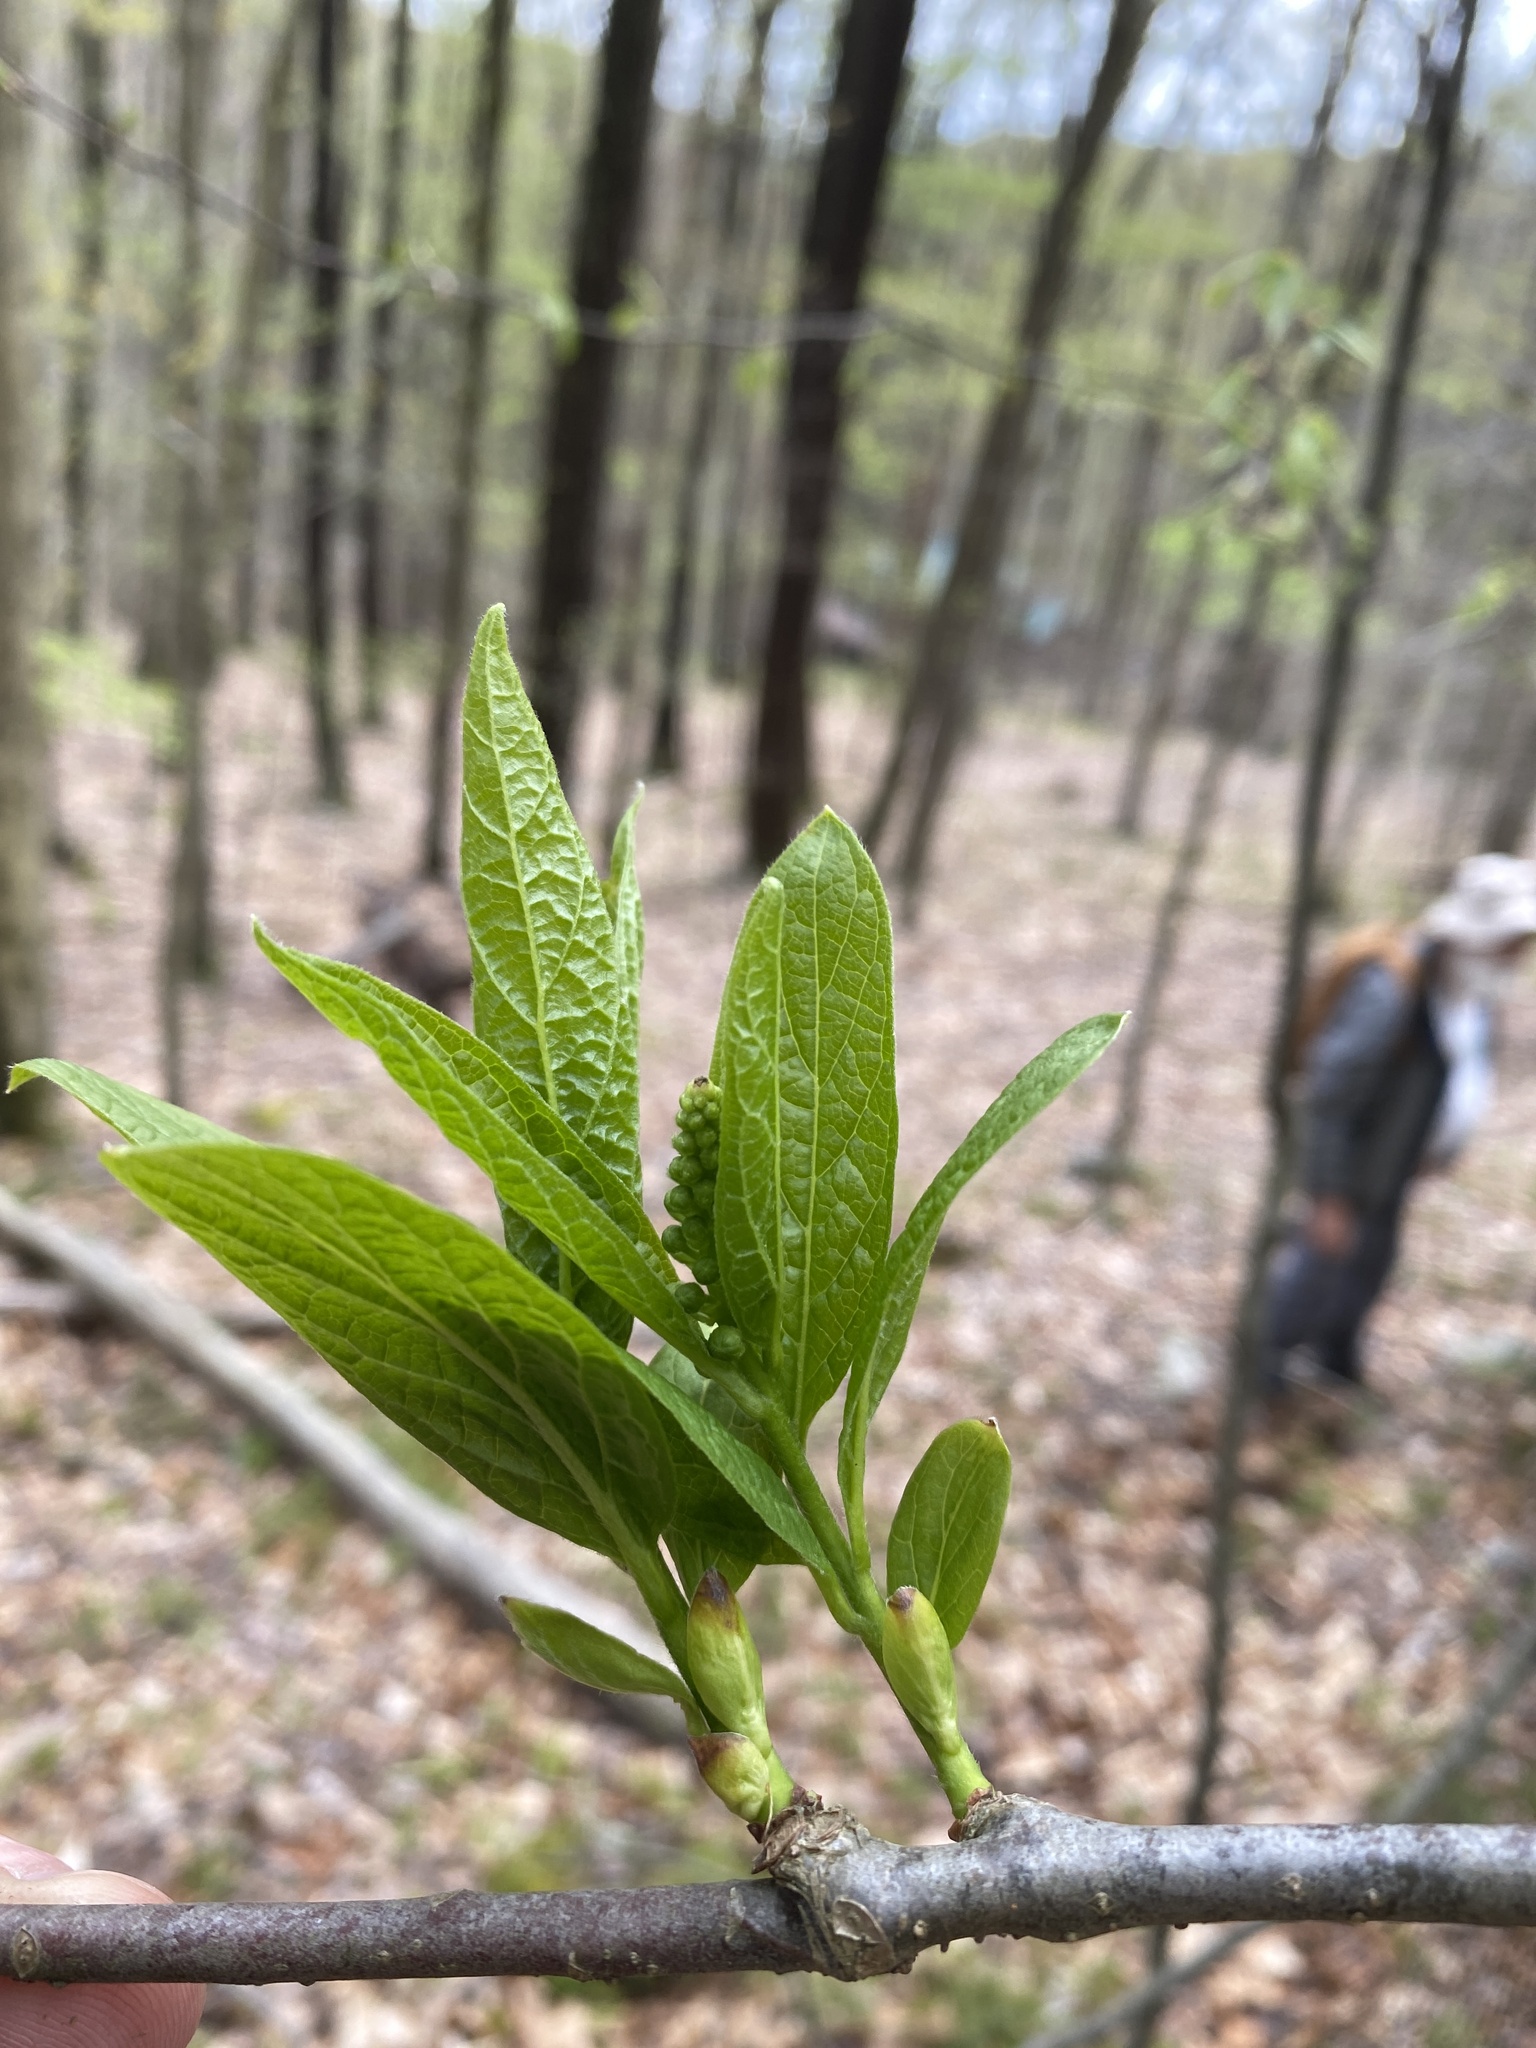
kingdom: Plantae
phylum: Tracheophyta
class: Magnoliopsida
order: Santalales
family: Cervantesiaceae
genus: Pyrularia
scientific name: Pyrularia pubera
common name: Oilnut
